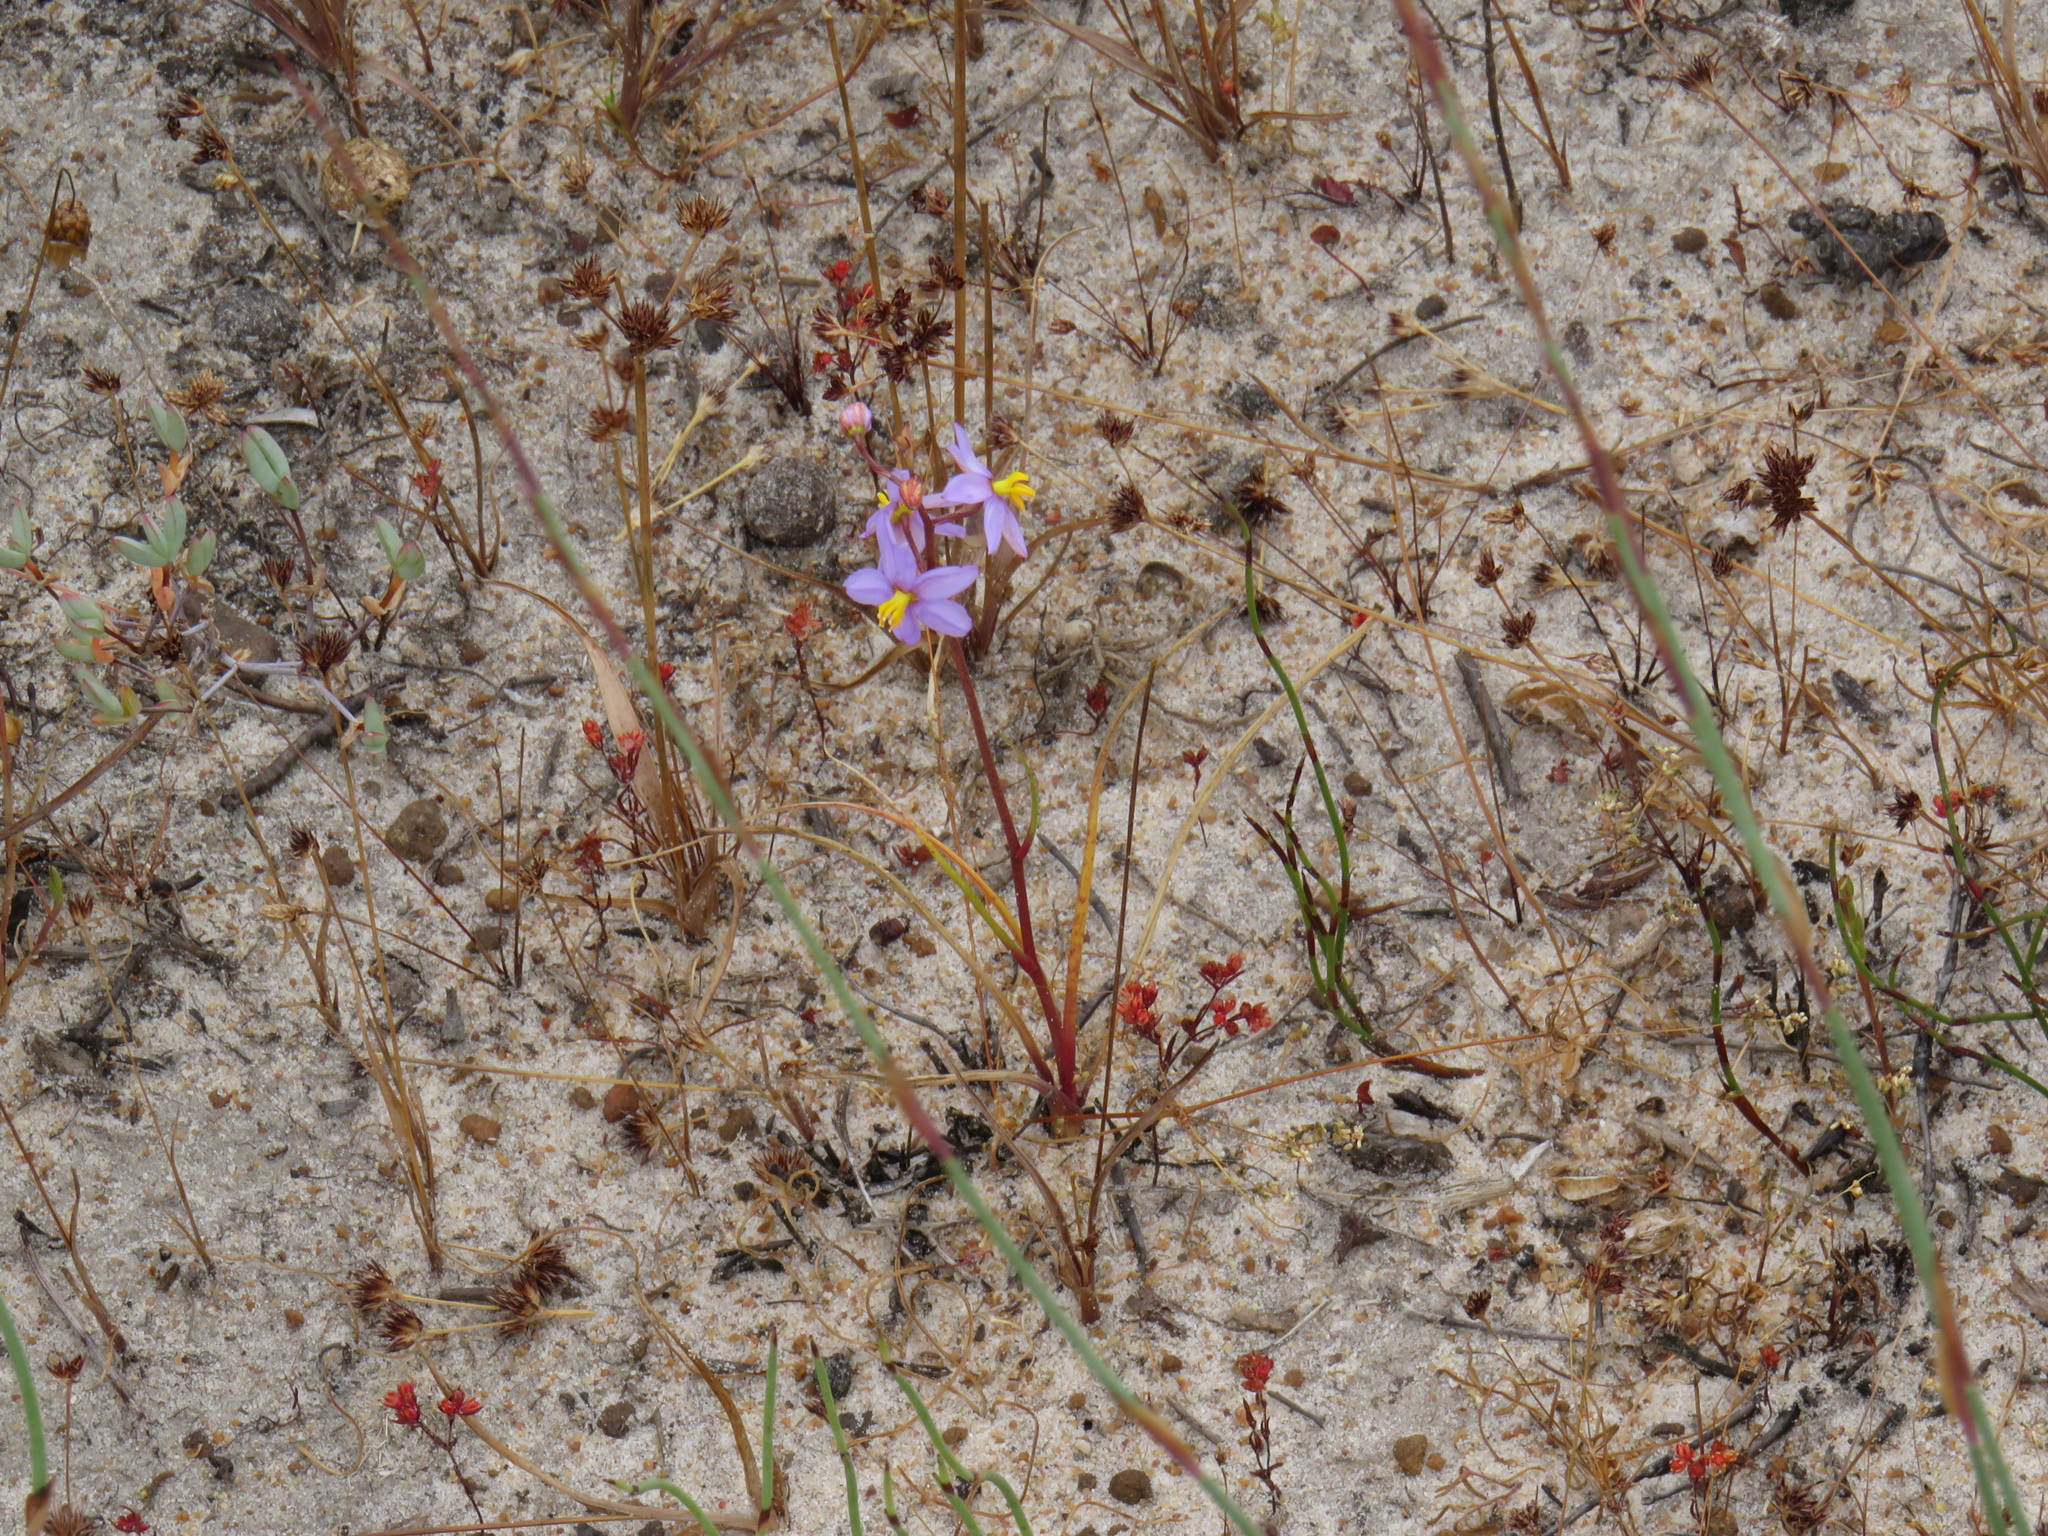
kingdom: Plantae
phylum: Tracheophyta
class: Liliopsida
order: Asparagales
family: Tecophilaeaceae
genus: Cyanella
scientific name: Cyanella hyacinthoides
